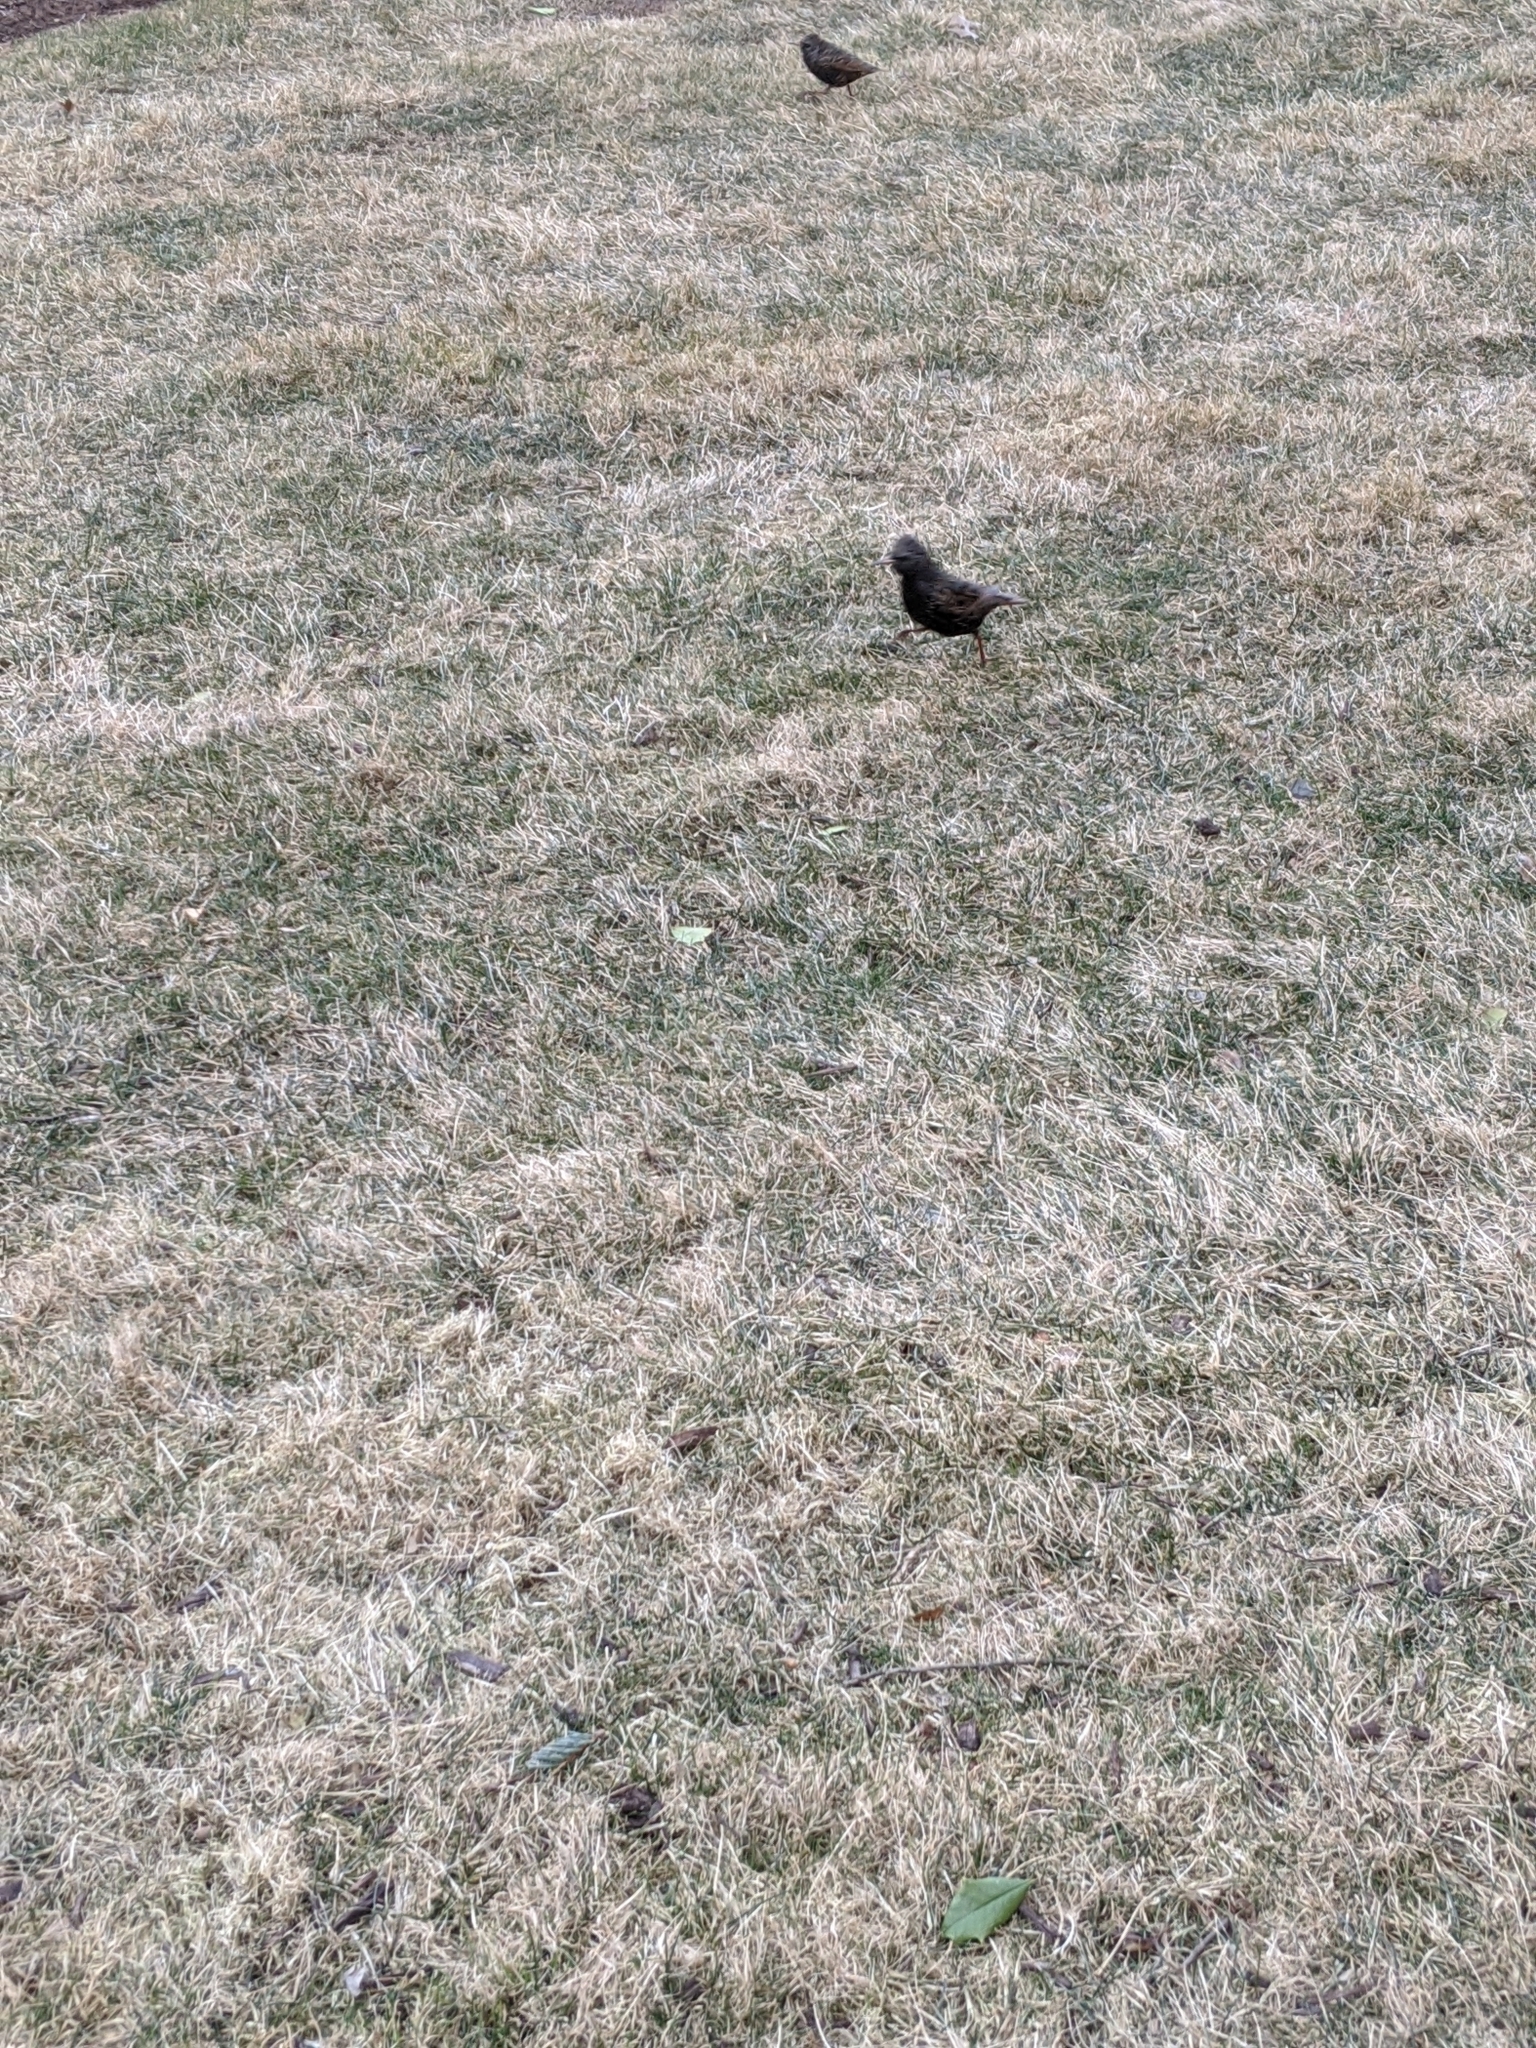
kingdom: Animalia
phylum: Chordata
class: Aves
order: Passeriformes
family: Sturnidae
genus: Sturnus
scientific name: Sturnus vulgaris
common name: Common starling
